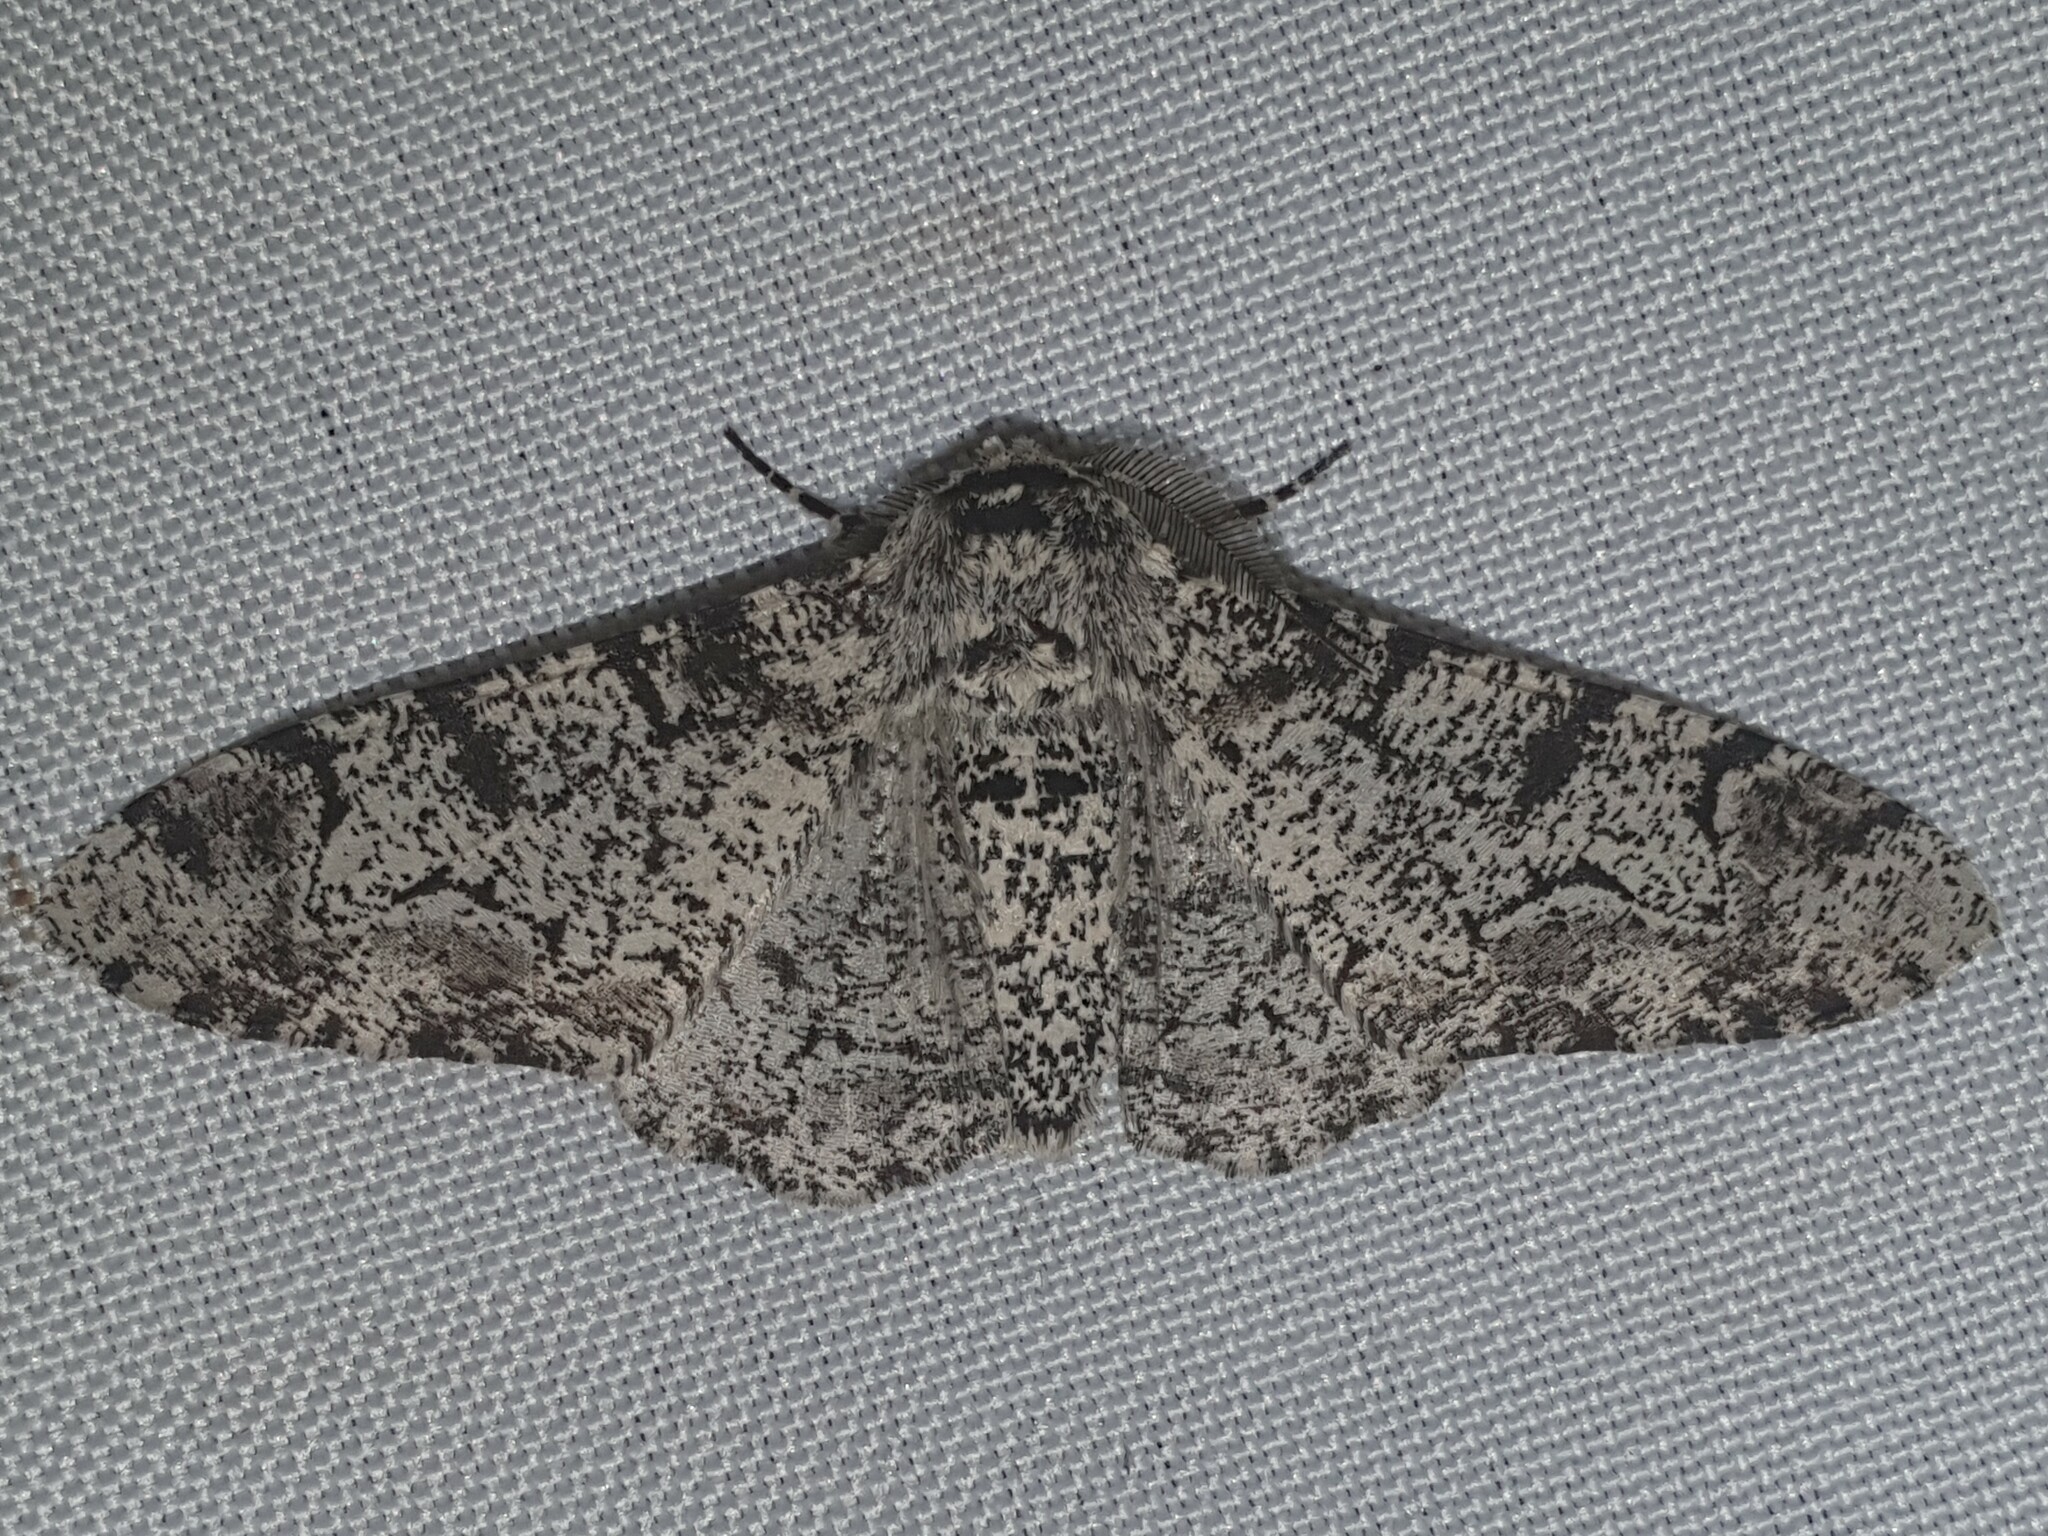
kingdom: Animalia
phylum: Arthropoda
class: Insecta
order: Lepidoptera
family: Geometridae
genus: Biston
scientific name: Biston betularia
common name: Peppered moth
